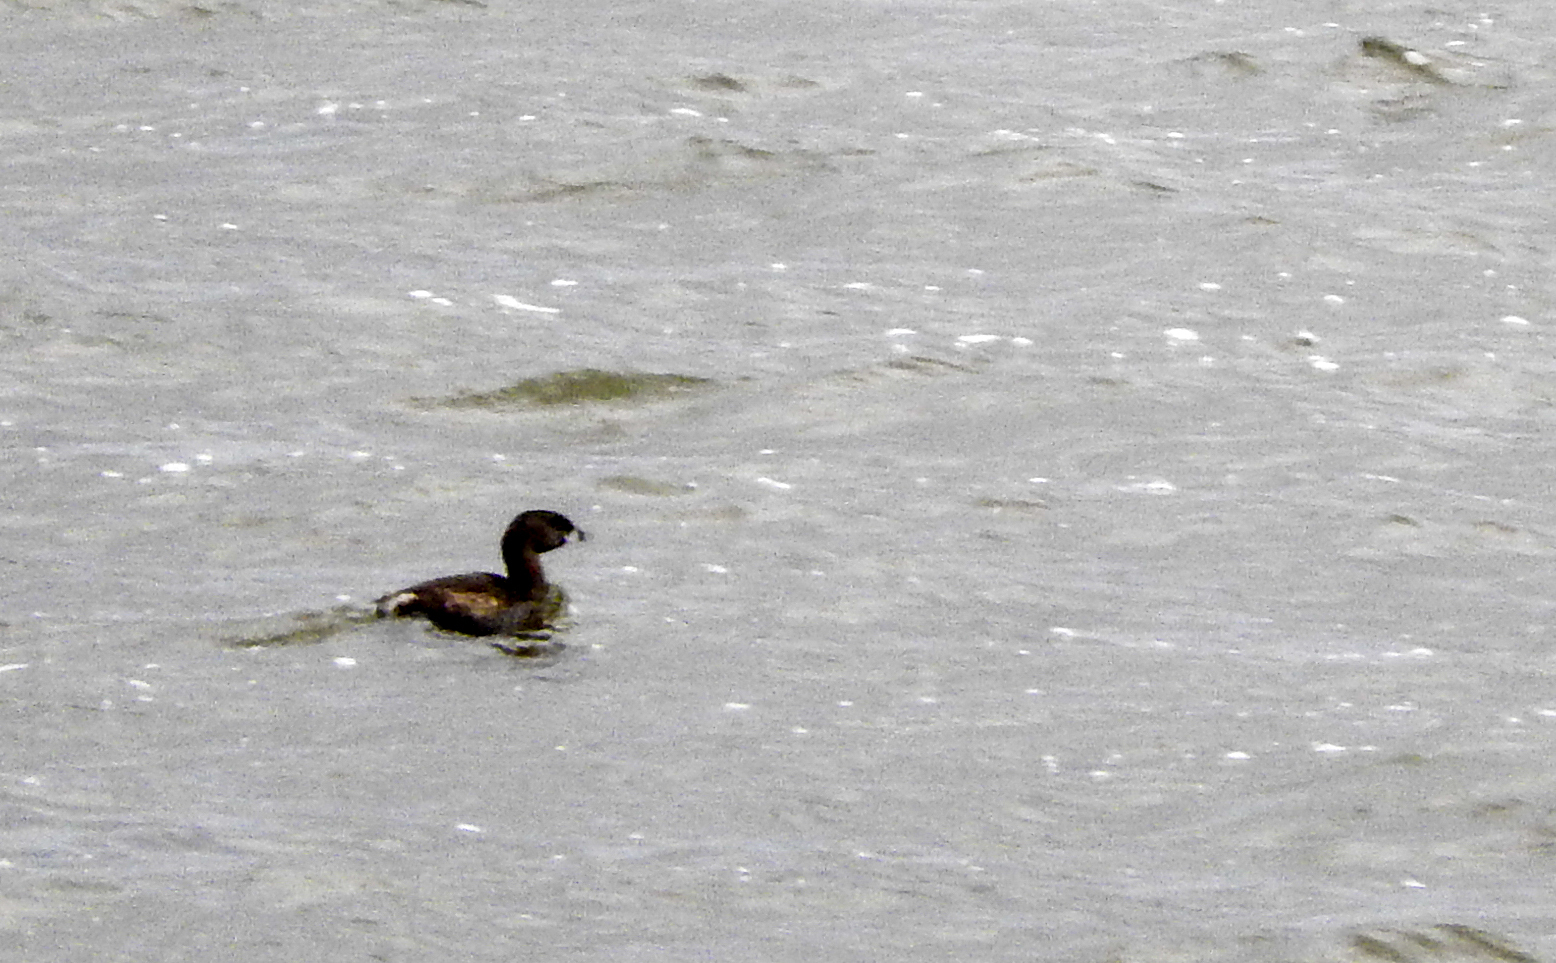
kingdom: Animalia
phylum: Chordata
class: Aves
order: Podicipediformes
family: Podicipedidae
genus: Podilymbus
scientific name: Podilymbus podiceps
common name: Pied-billed grebe
